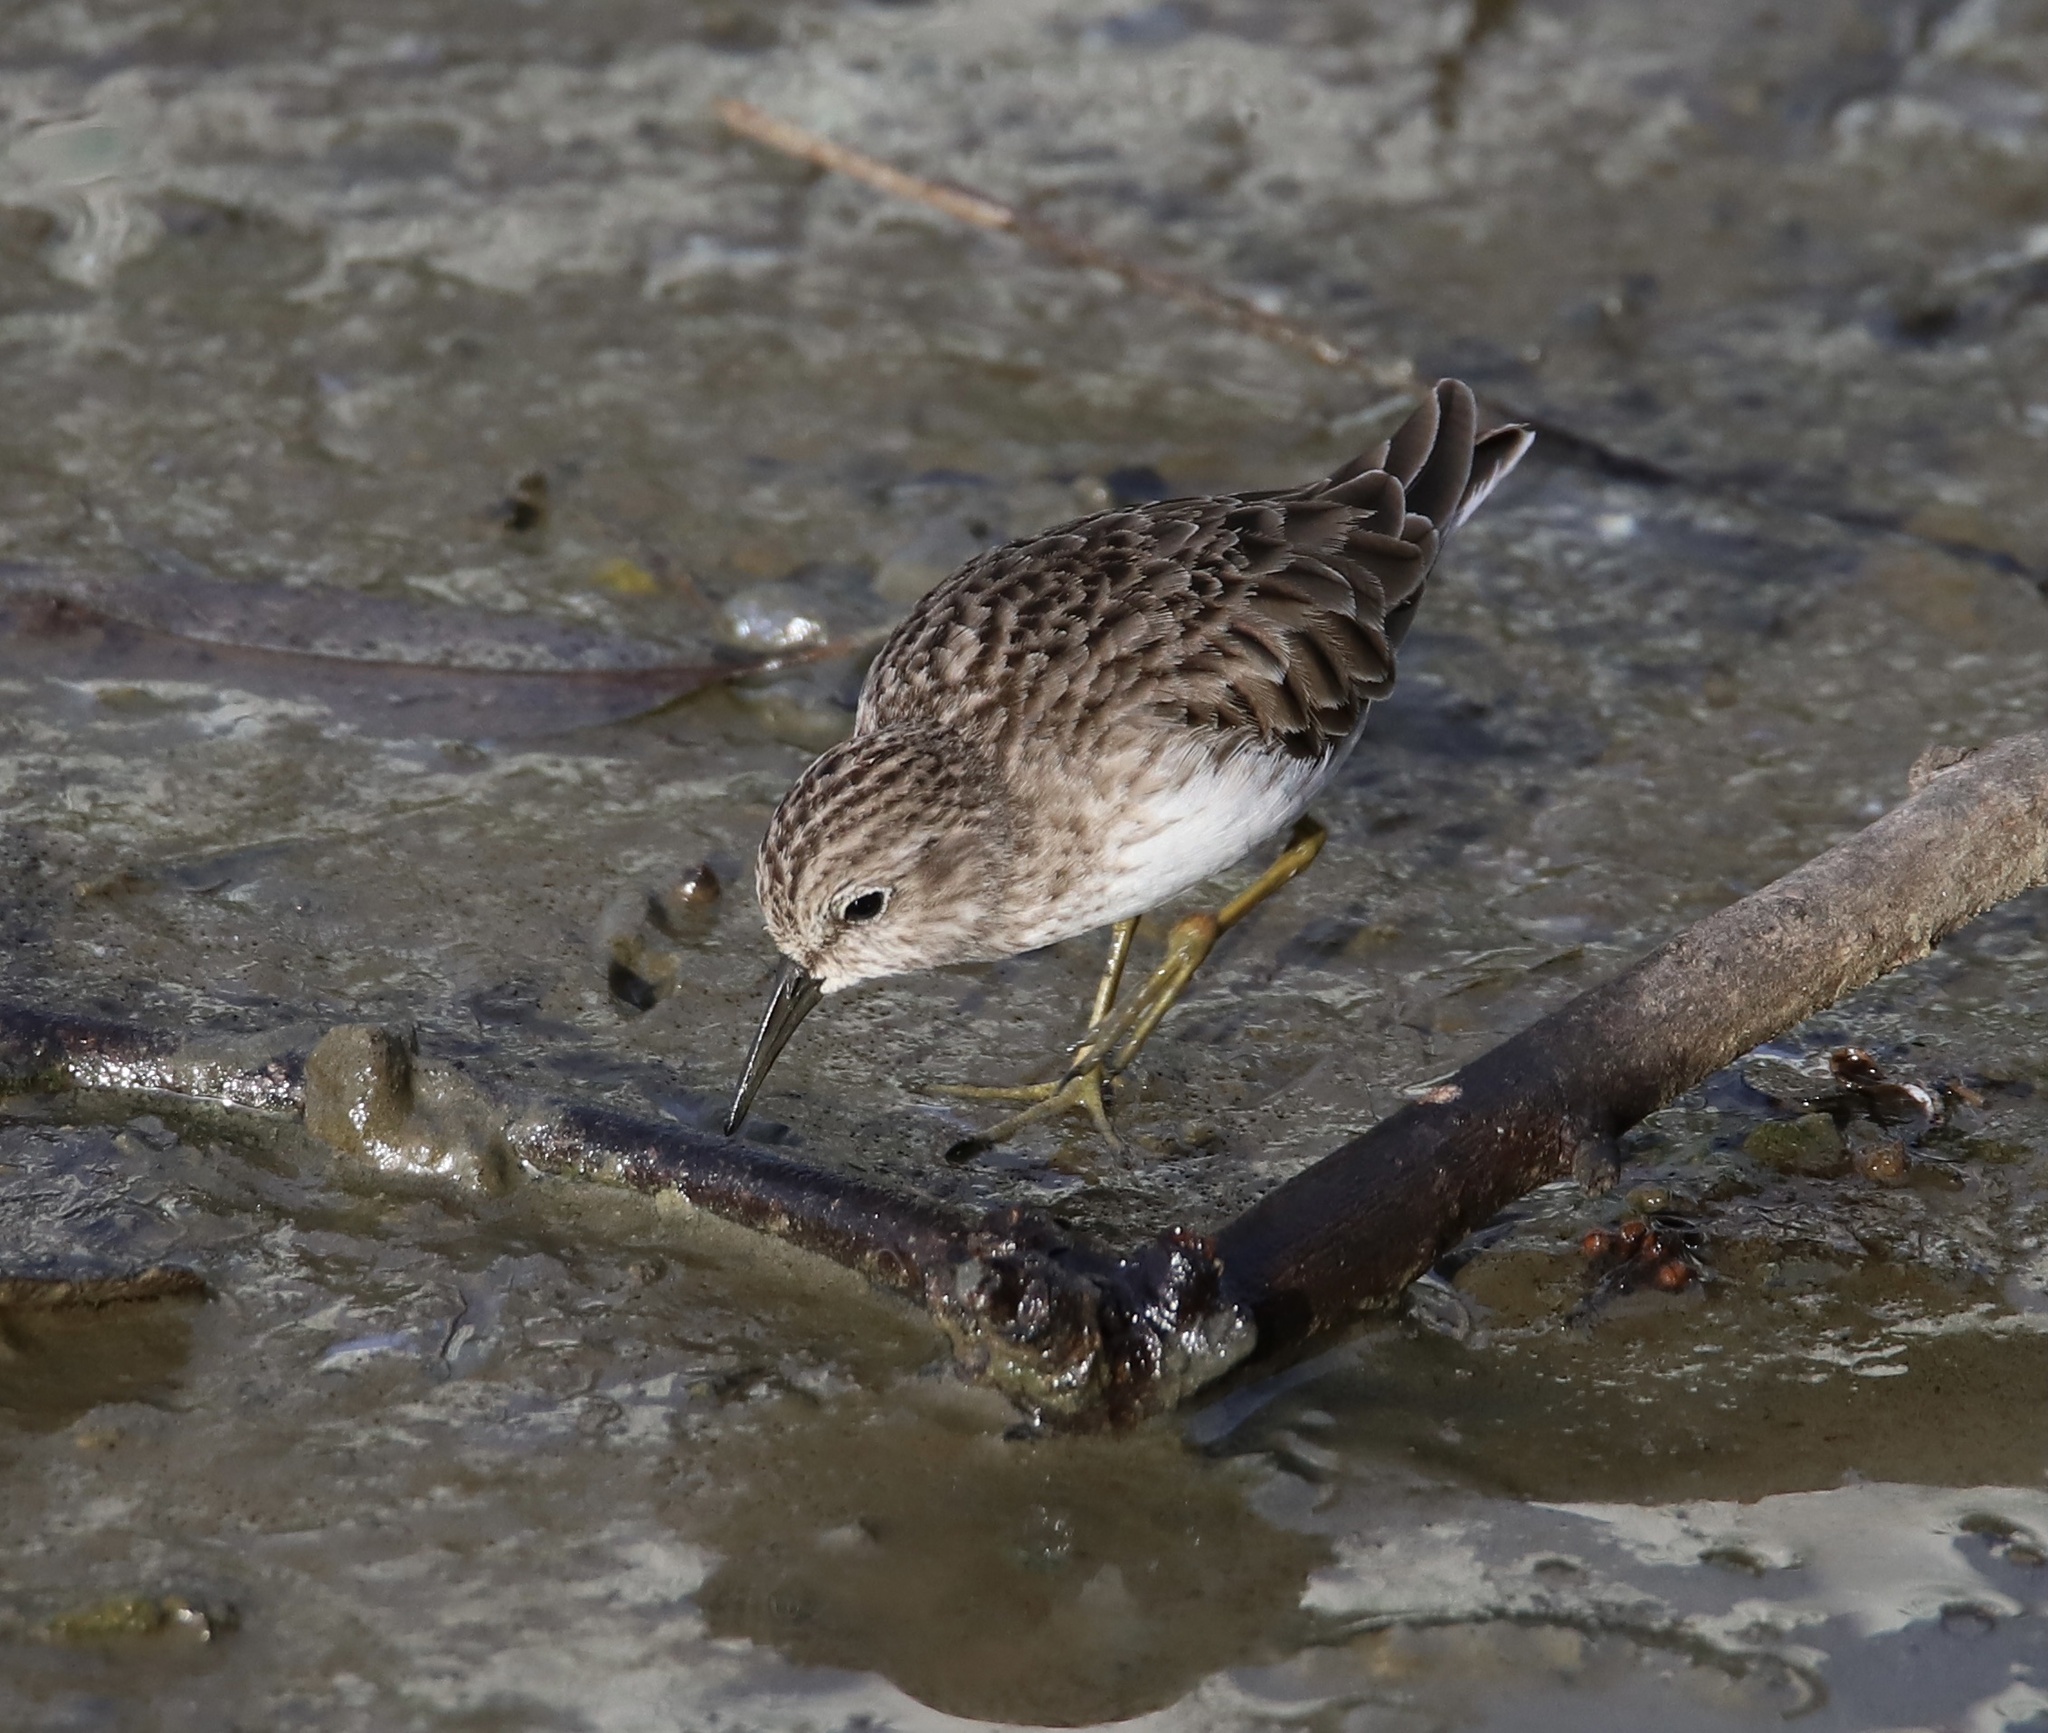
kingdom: Animalia
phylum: Chordata
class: Aves
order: Charadriiformes
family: Scolopacidae
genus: Calidris
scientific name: Calidris minutilla
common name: Least sandpiper
